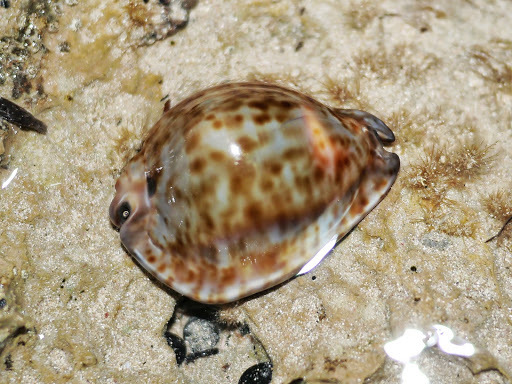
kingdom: Animalia
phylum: Mollusca
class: Gastropoda
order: Littorinimorpha
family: Cypraeidae
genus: Trona
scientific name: Trona stercoraria
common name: Droppings cowry
